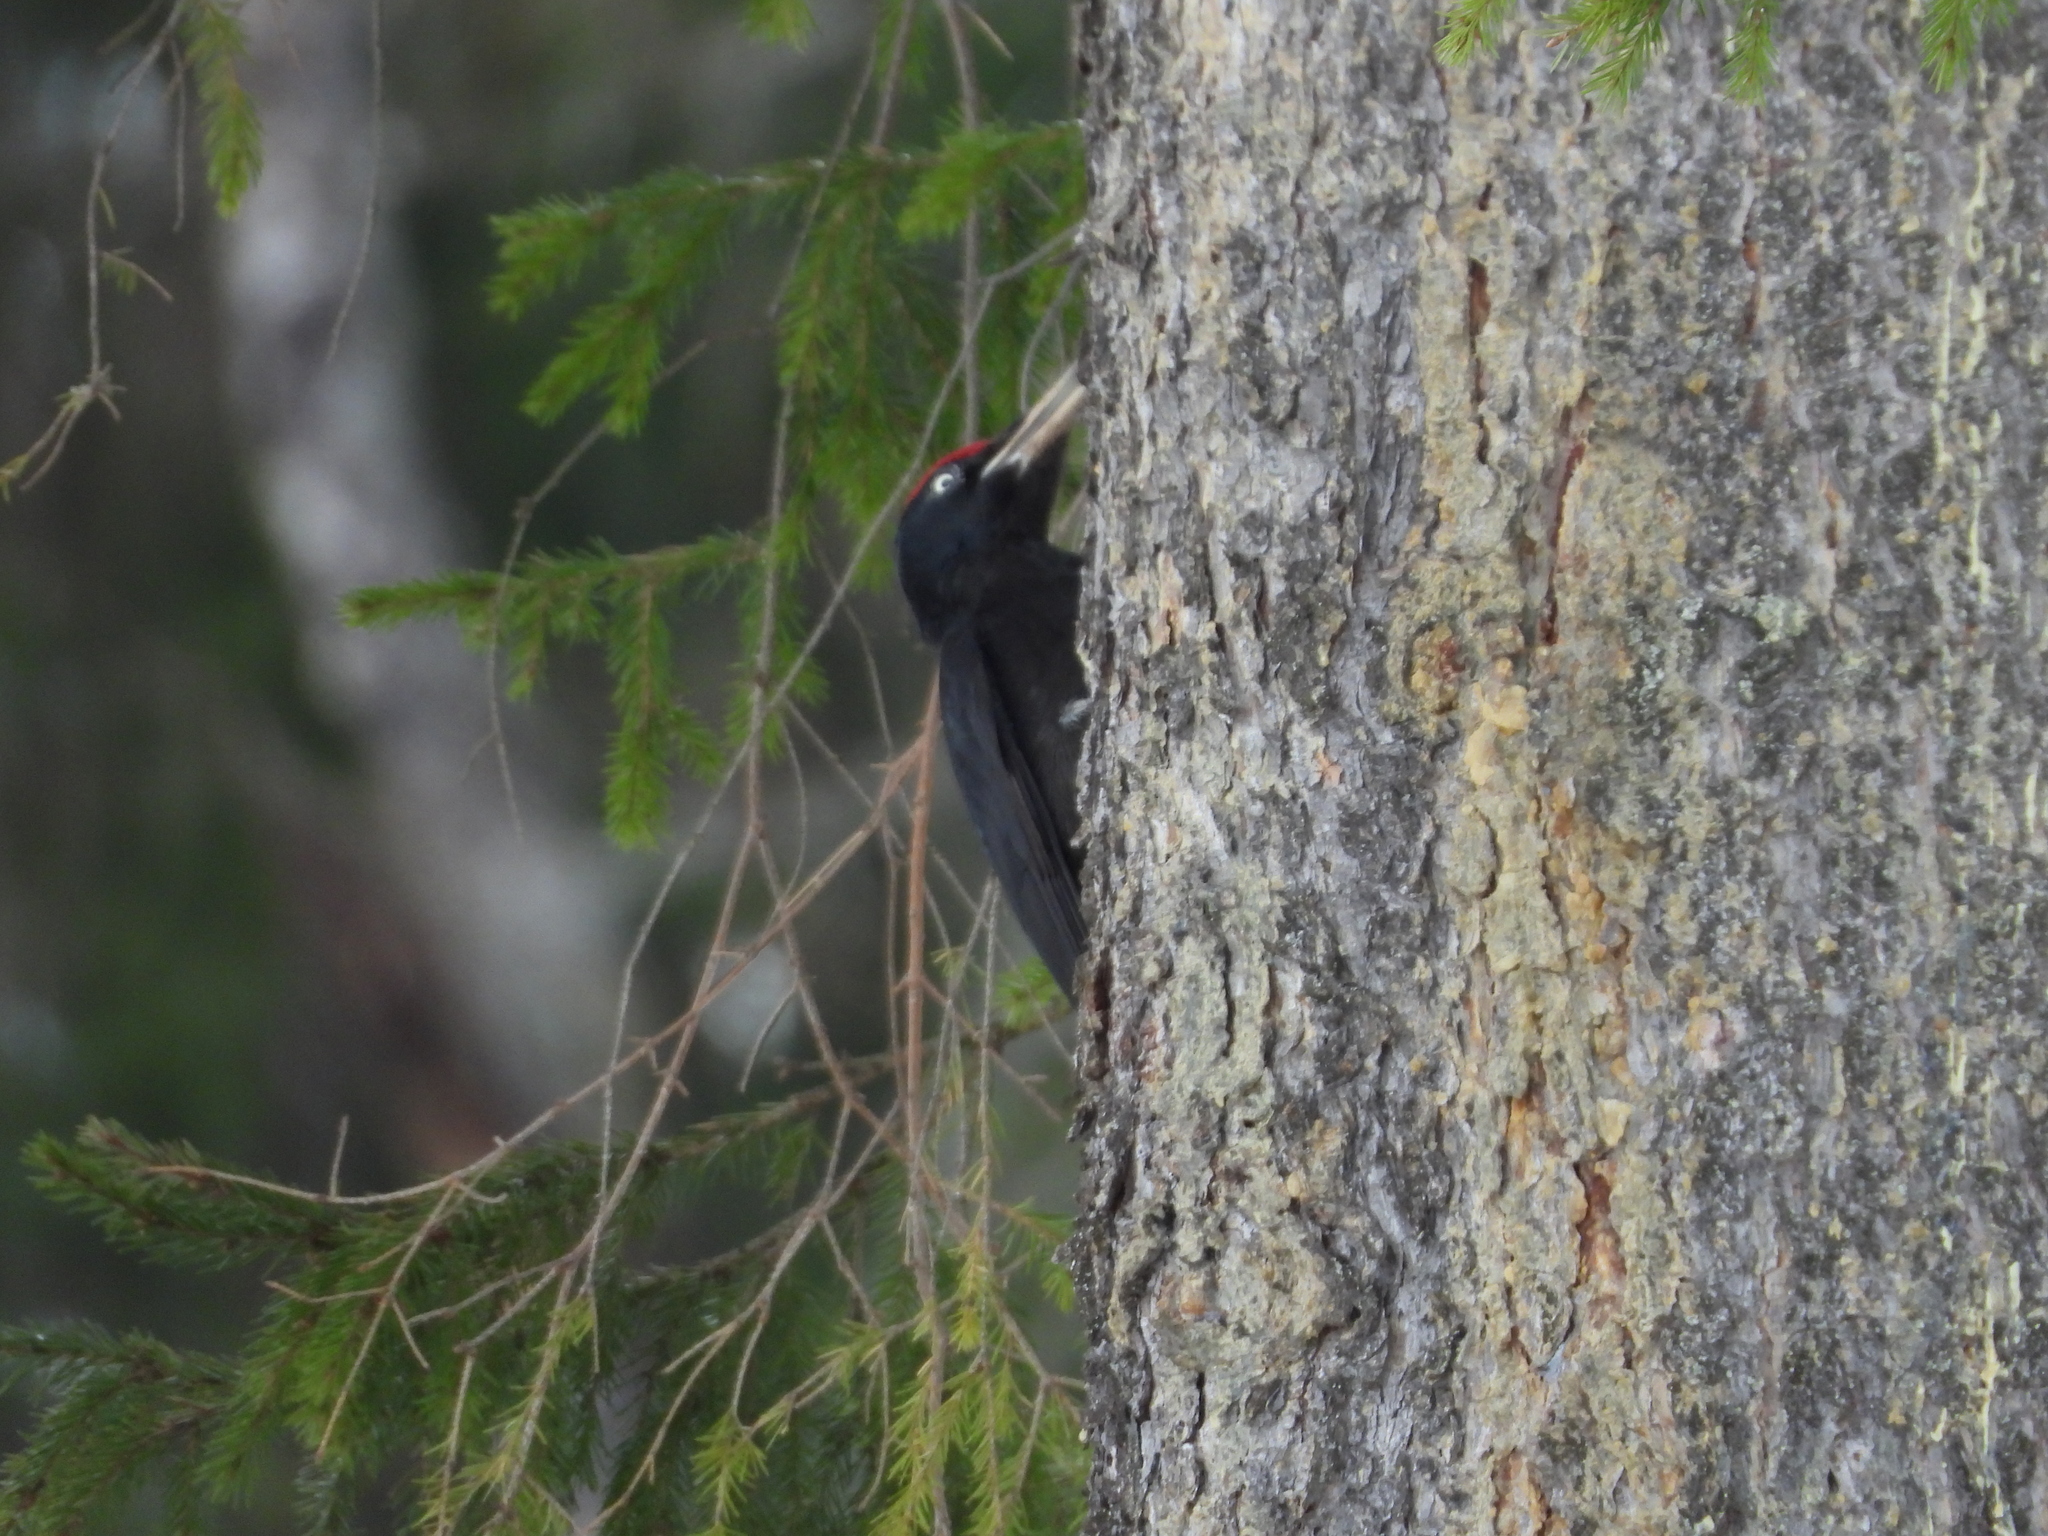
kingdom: Animalia
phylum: Chordata
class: Aves
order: Piciformes
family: Picidae
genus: Dryocopus
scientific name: Dryocopus martius
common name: Black woodpecker
